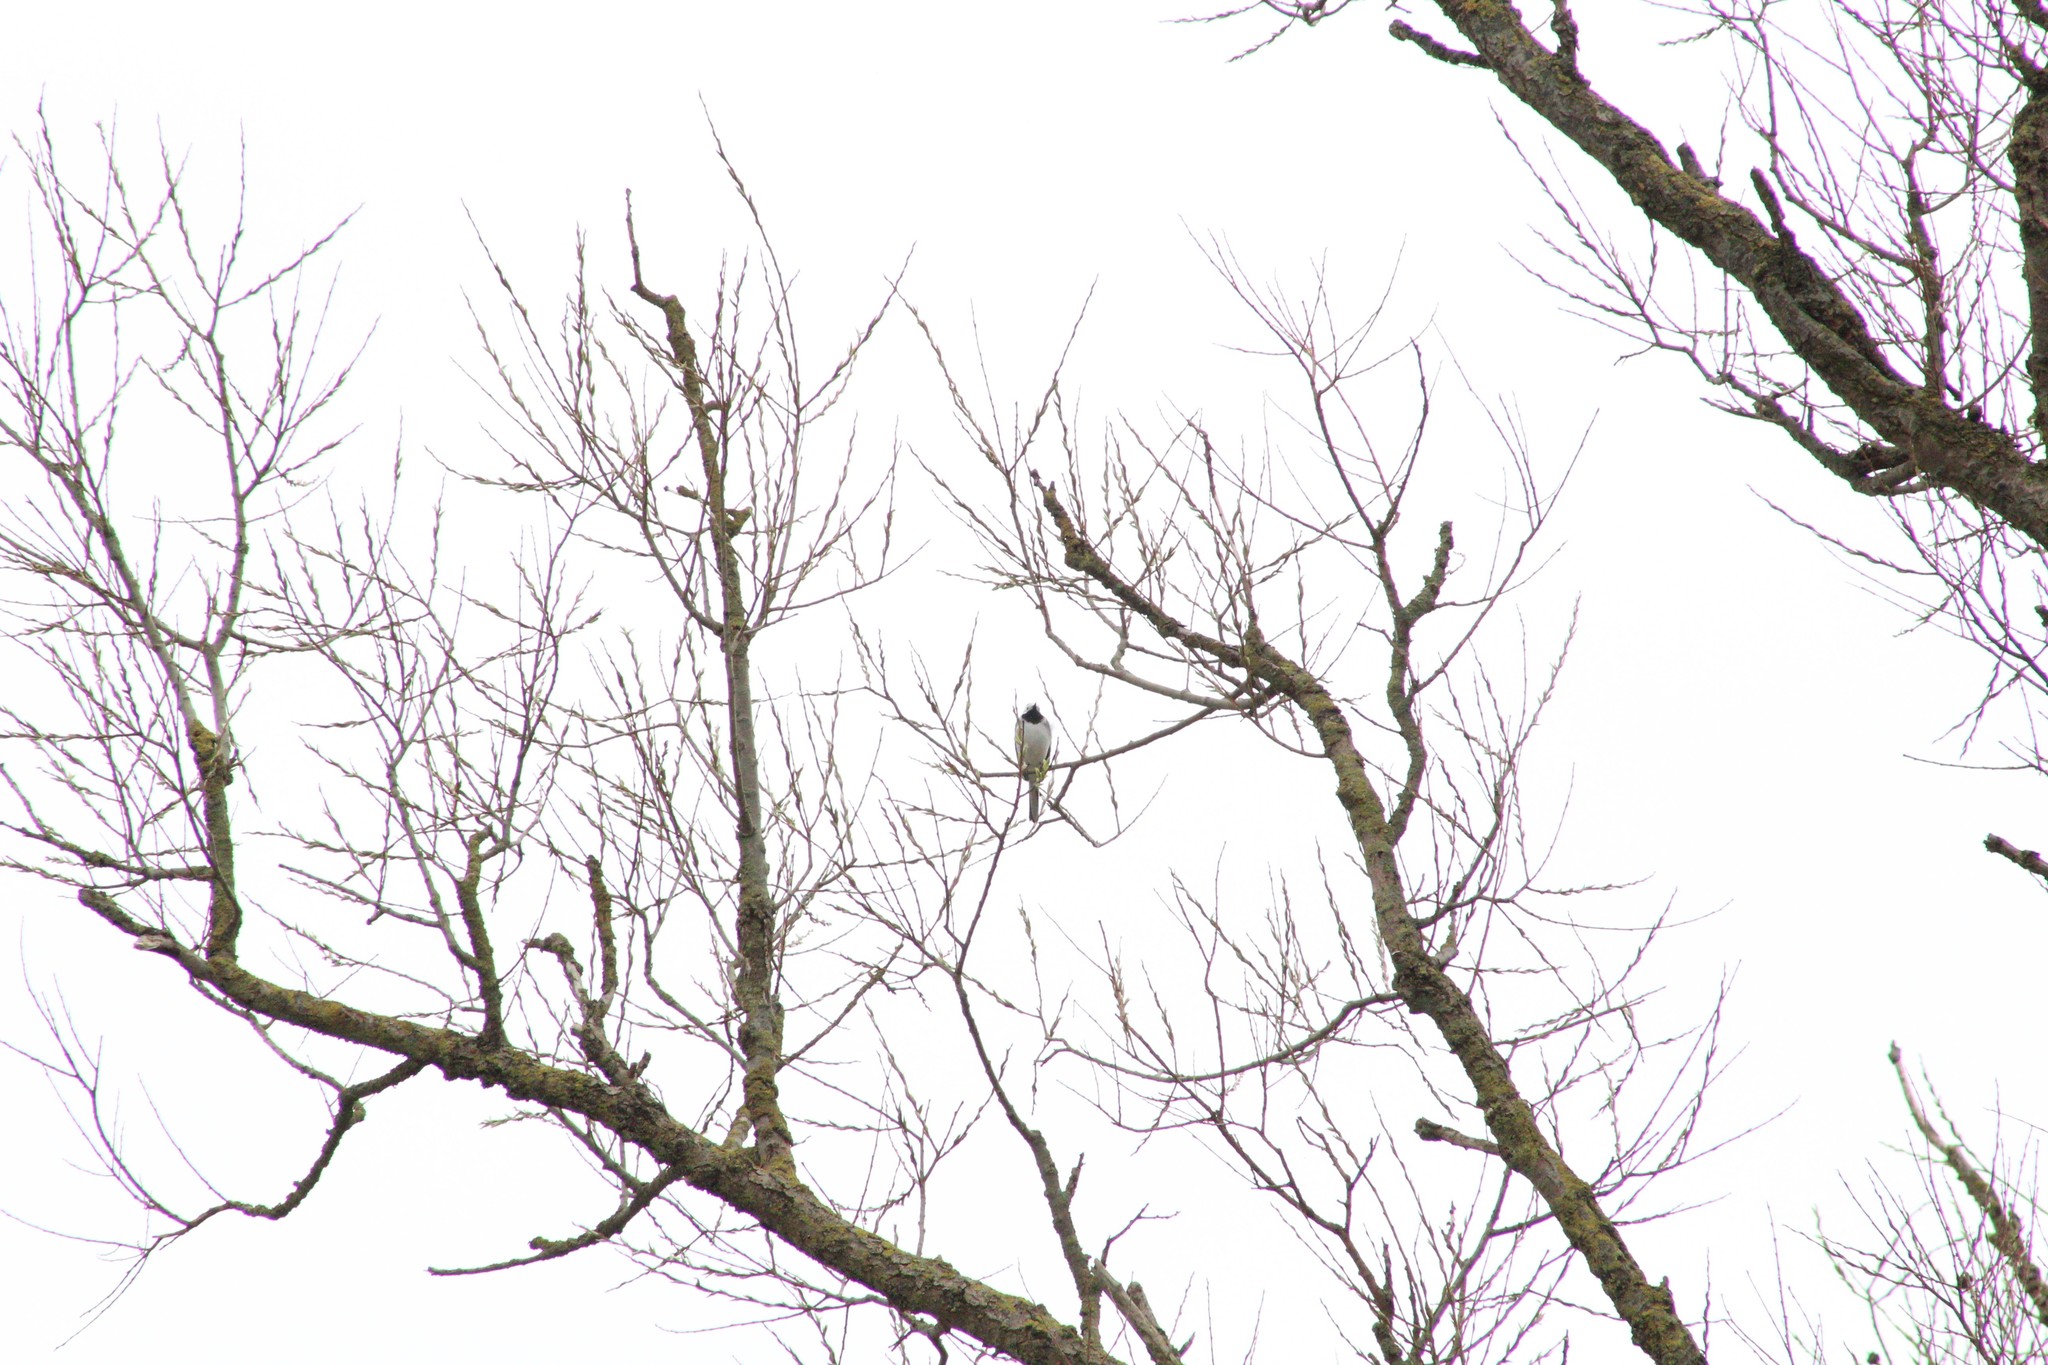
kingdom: Animalia
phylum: Chordata
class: Aves
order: Passeriformes
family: Motacillidae
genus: Motacilla
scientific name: Motacilla alba
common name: White wagtail
